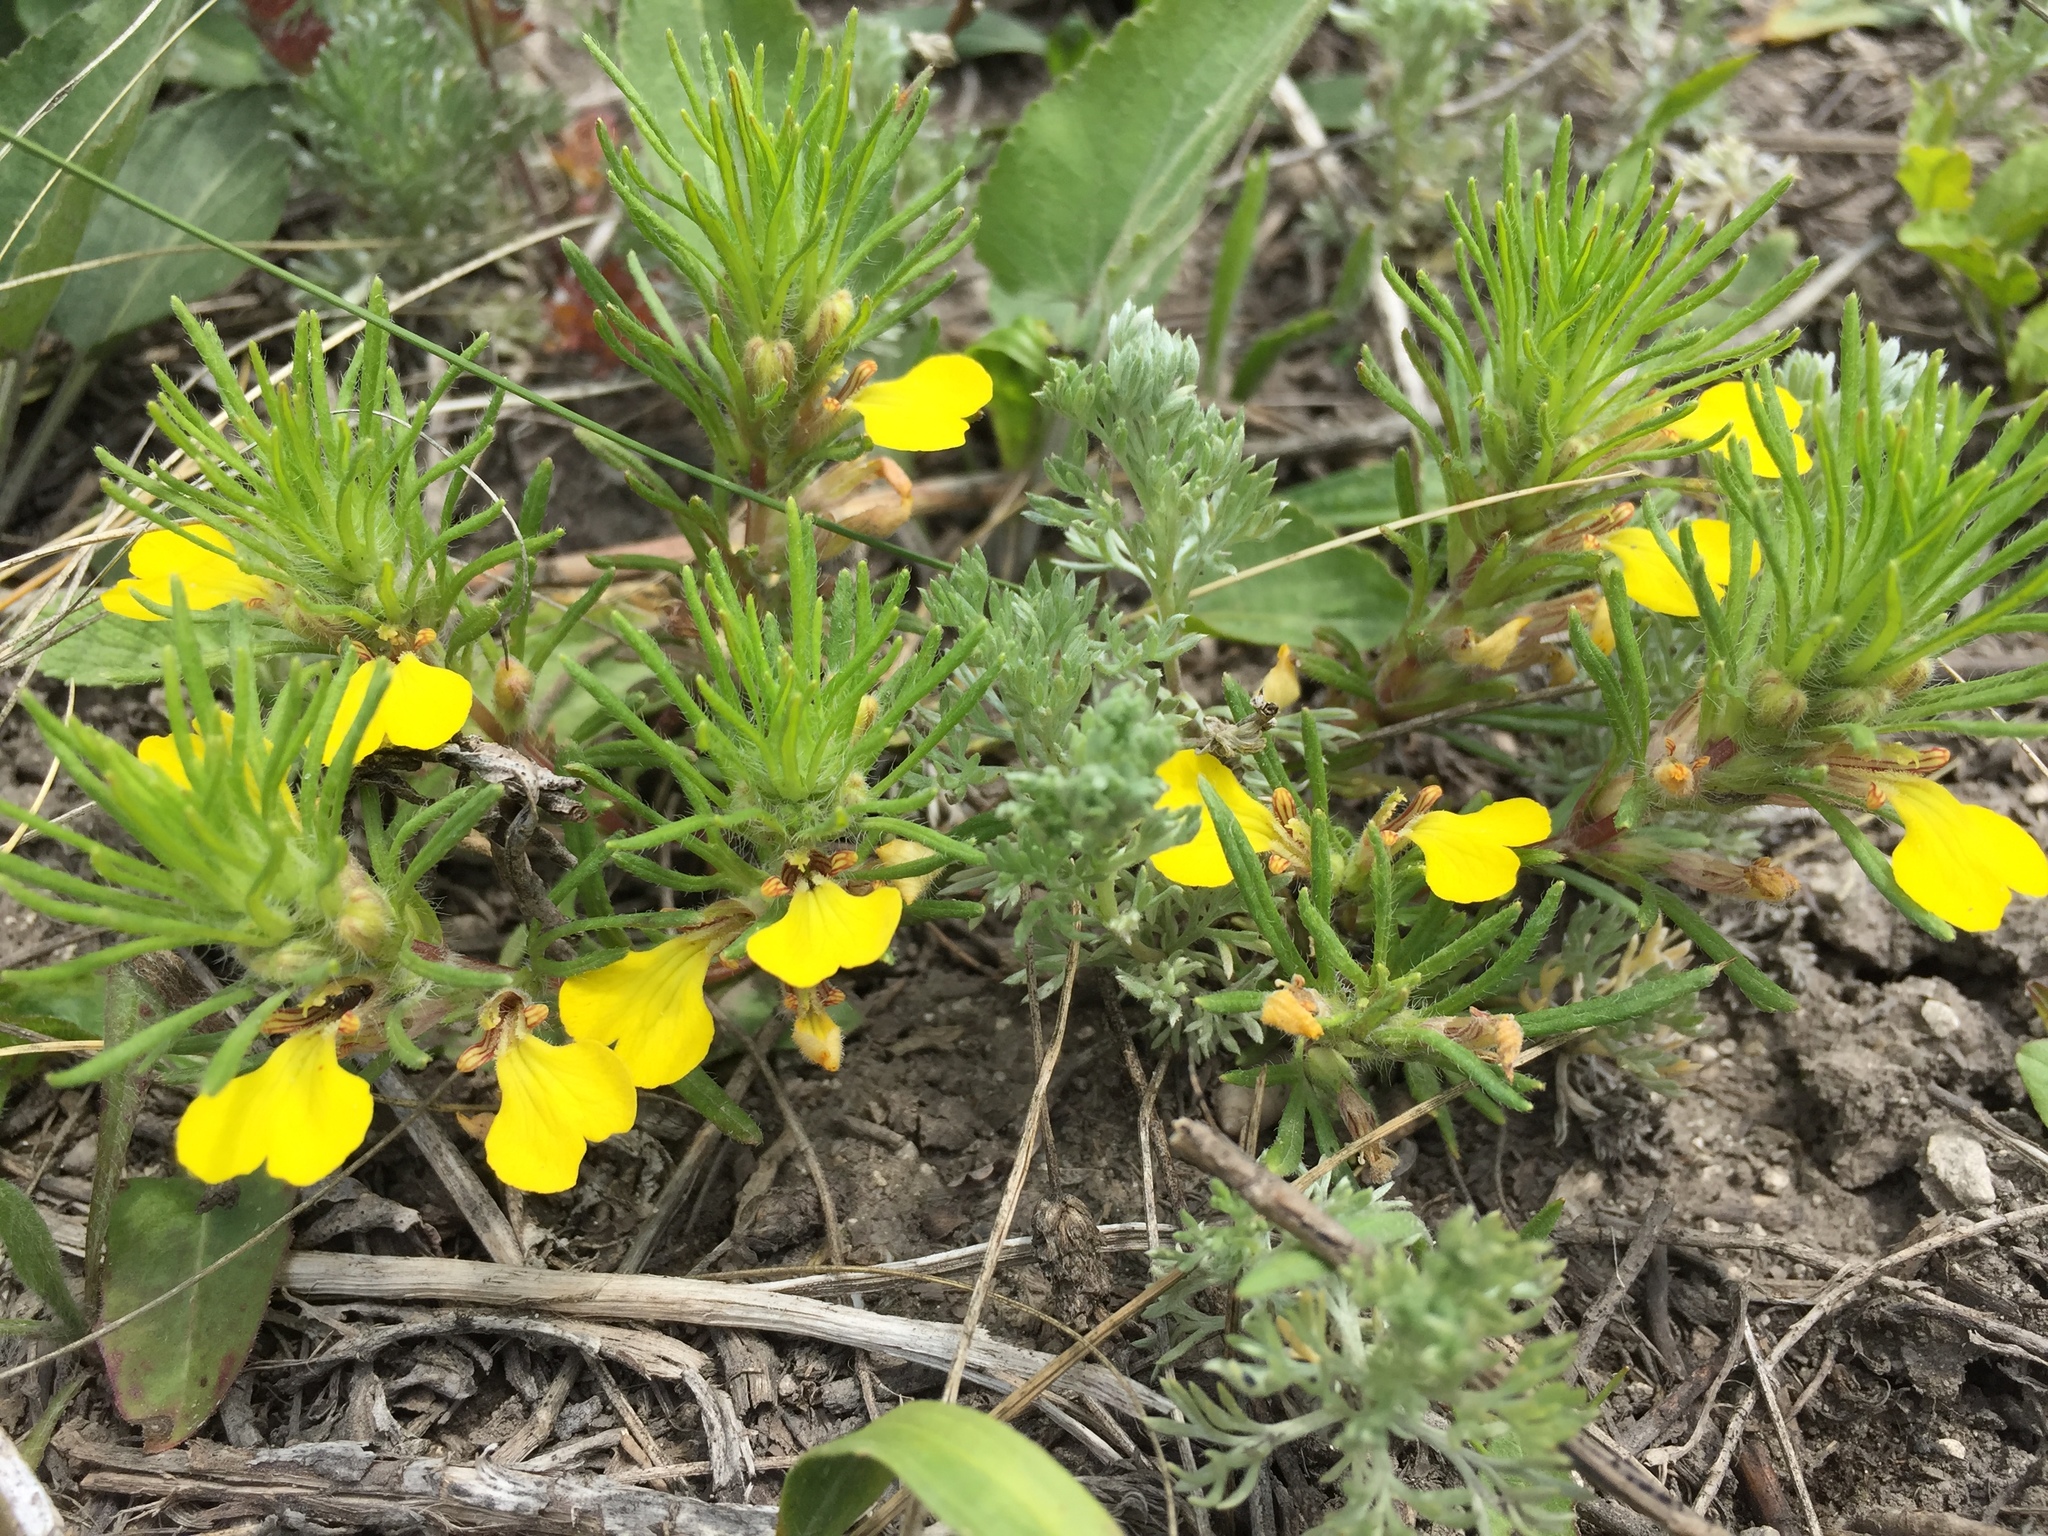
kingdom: Plantae
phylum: Tracheophyta
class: Magnoliopsida
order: Lamiales
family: Lamiaceae
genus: Ajuga
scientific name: Ajuga chamaepitys
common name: Ground-pine
